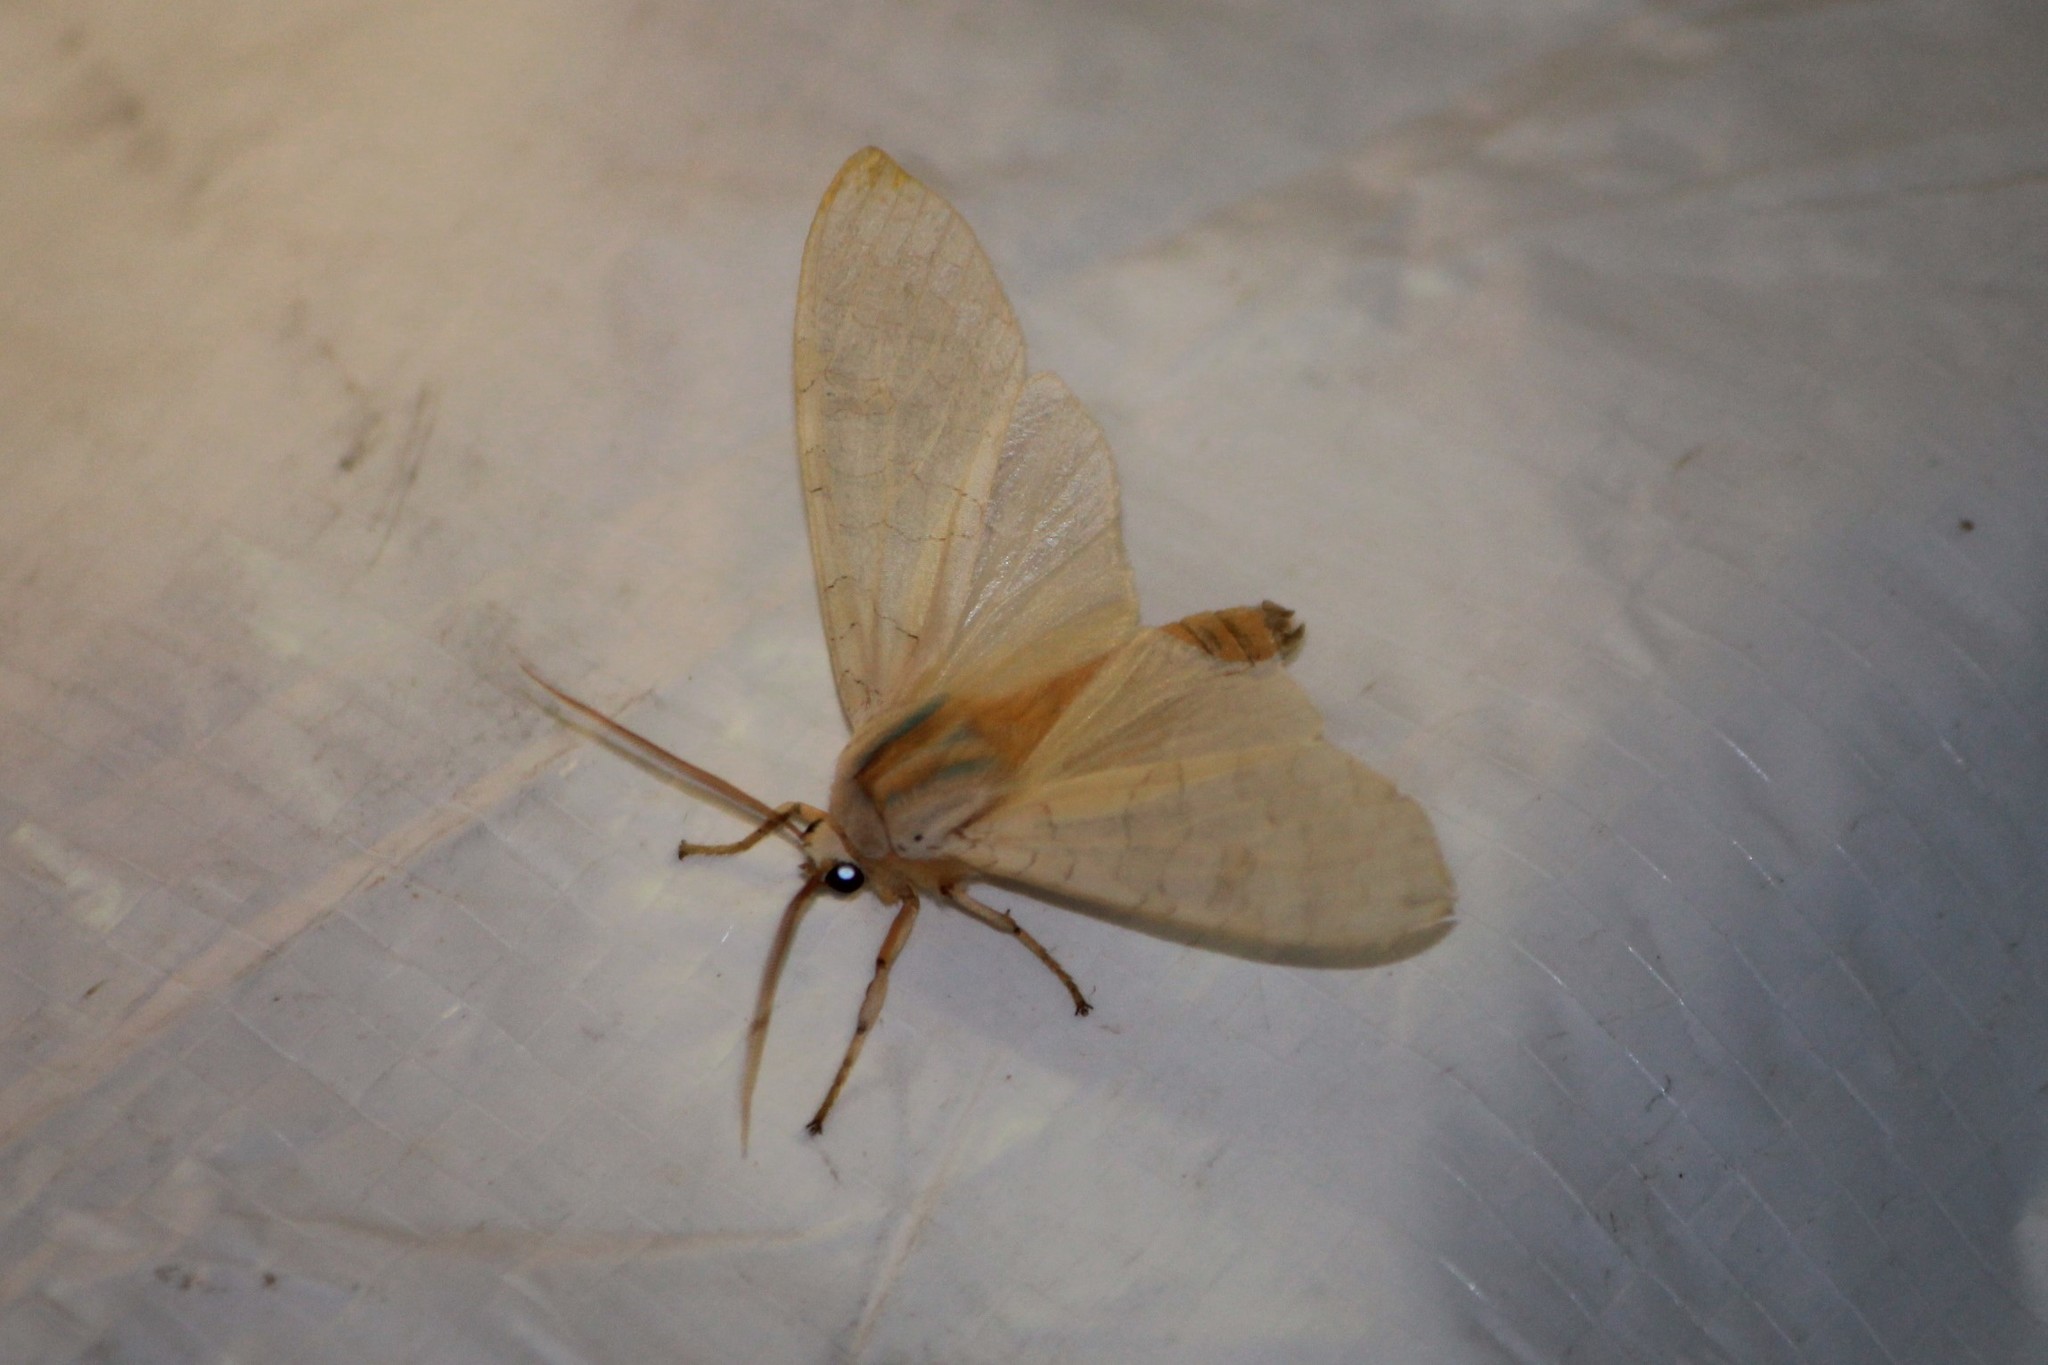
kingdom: Animalia
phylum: Arthropoda
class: Insecta
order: Lepidoptera
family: Erebidae
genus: Halysidota
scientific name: Halysidota tessellaris
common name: Banded tussock moth
